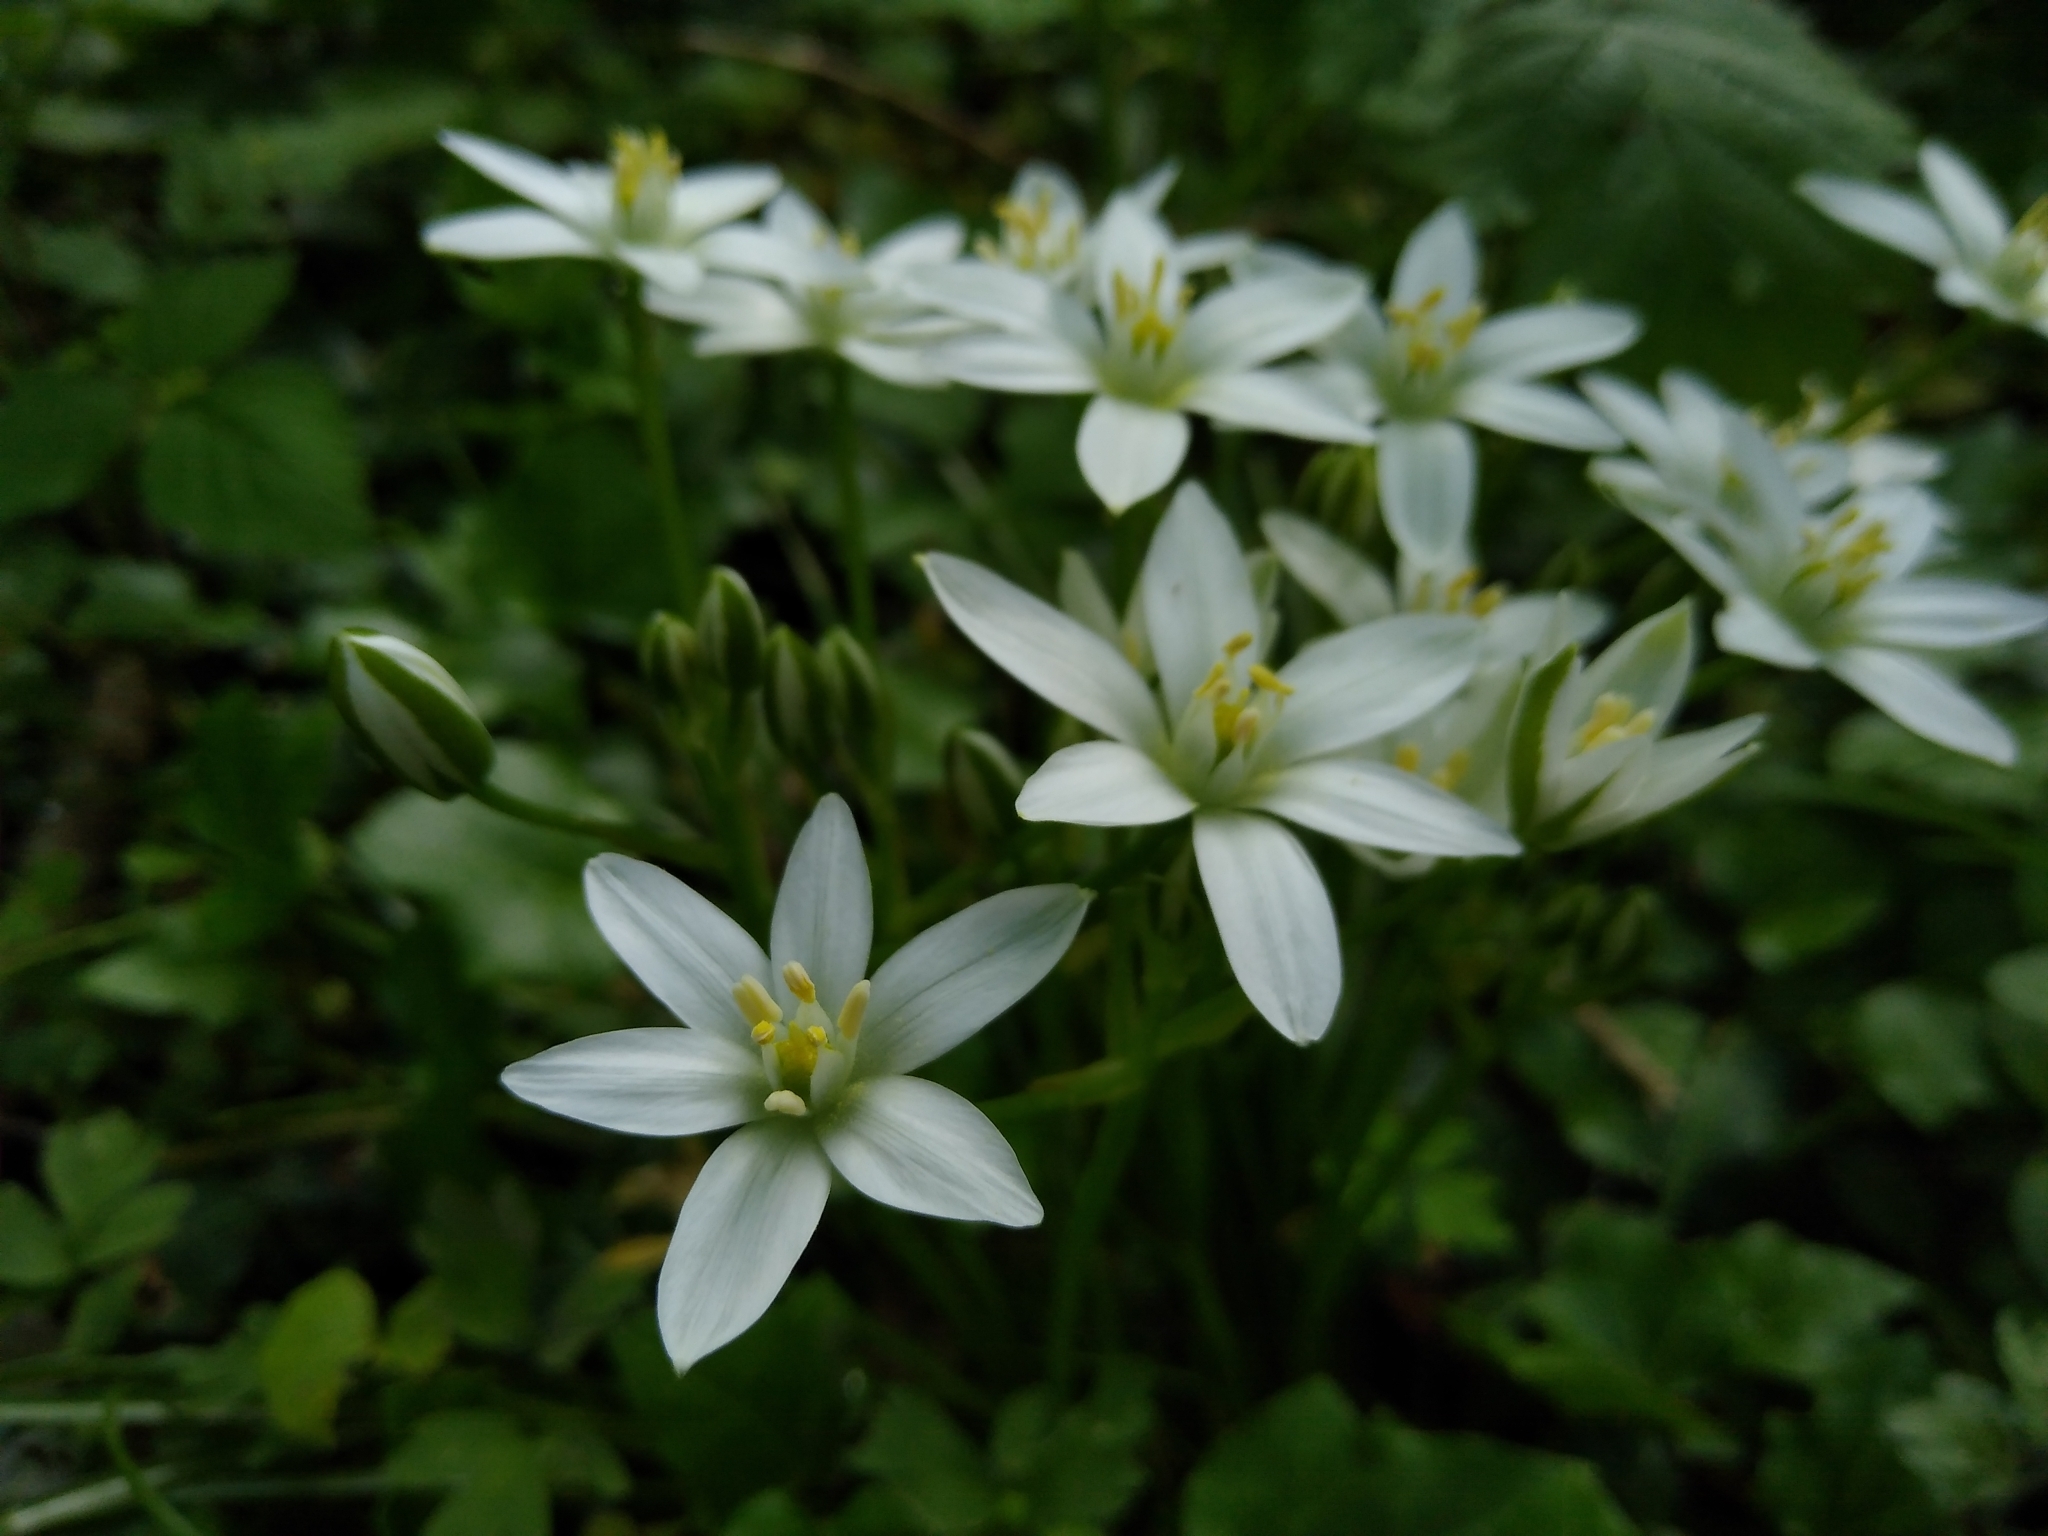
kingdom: Plantae
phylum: Tracheophyta
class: Liliopsida
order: Asparagales
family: Asparagaceae
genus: Ornithogalum
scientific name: Ornithogalum umbellatum
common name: Garden star-of-bethlehem
